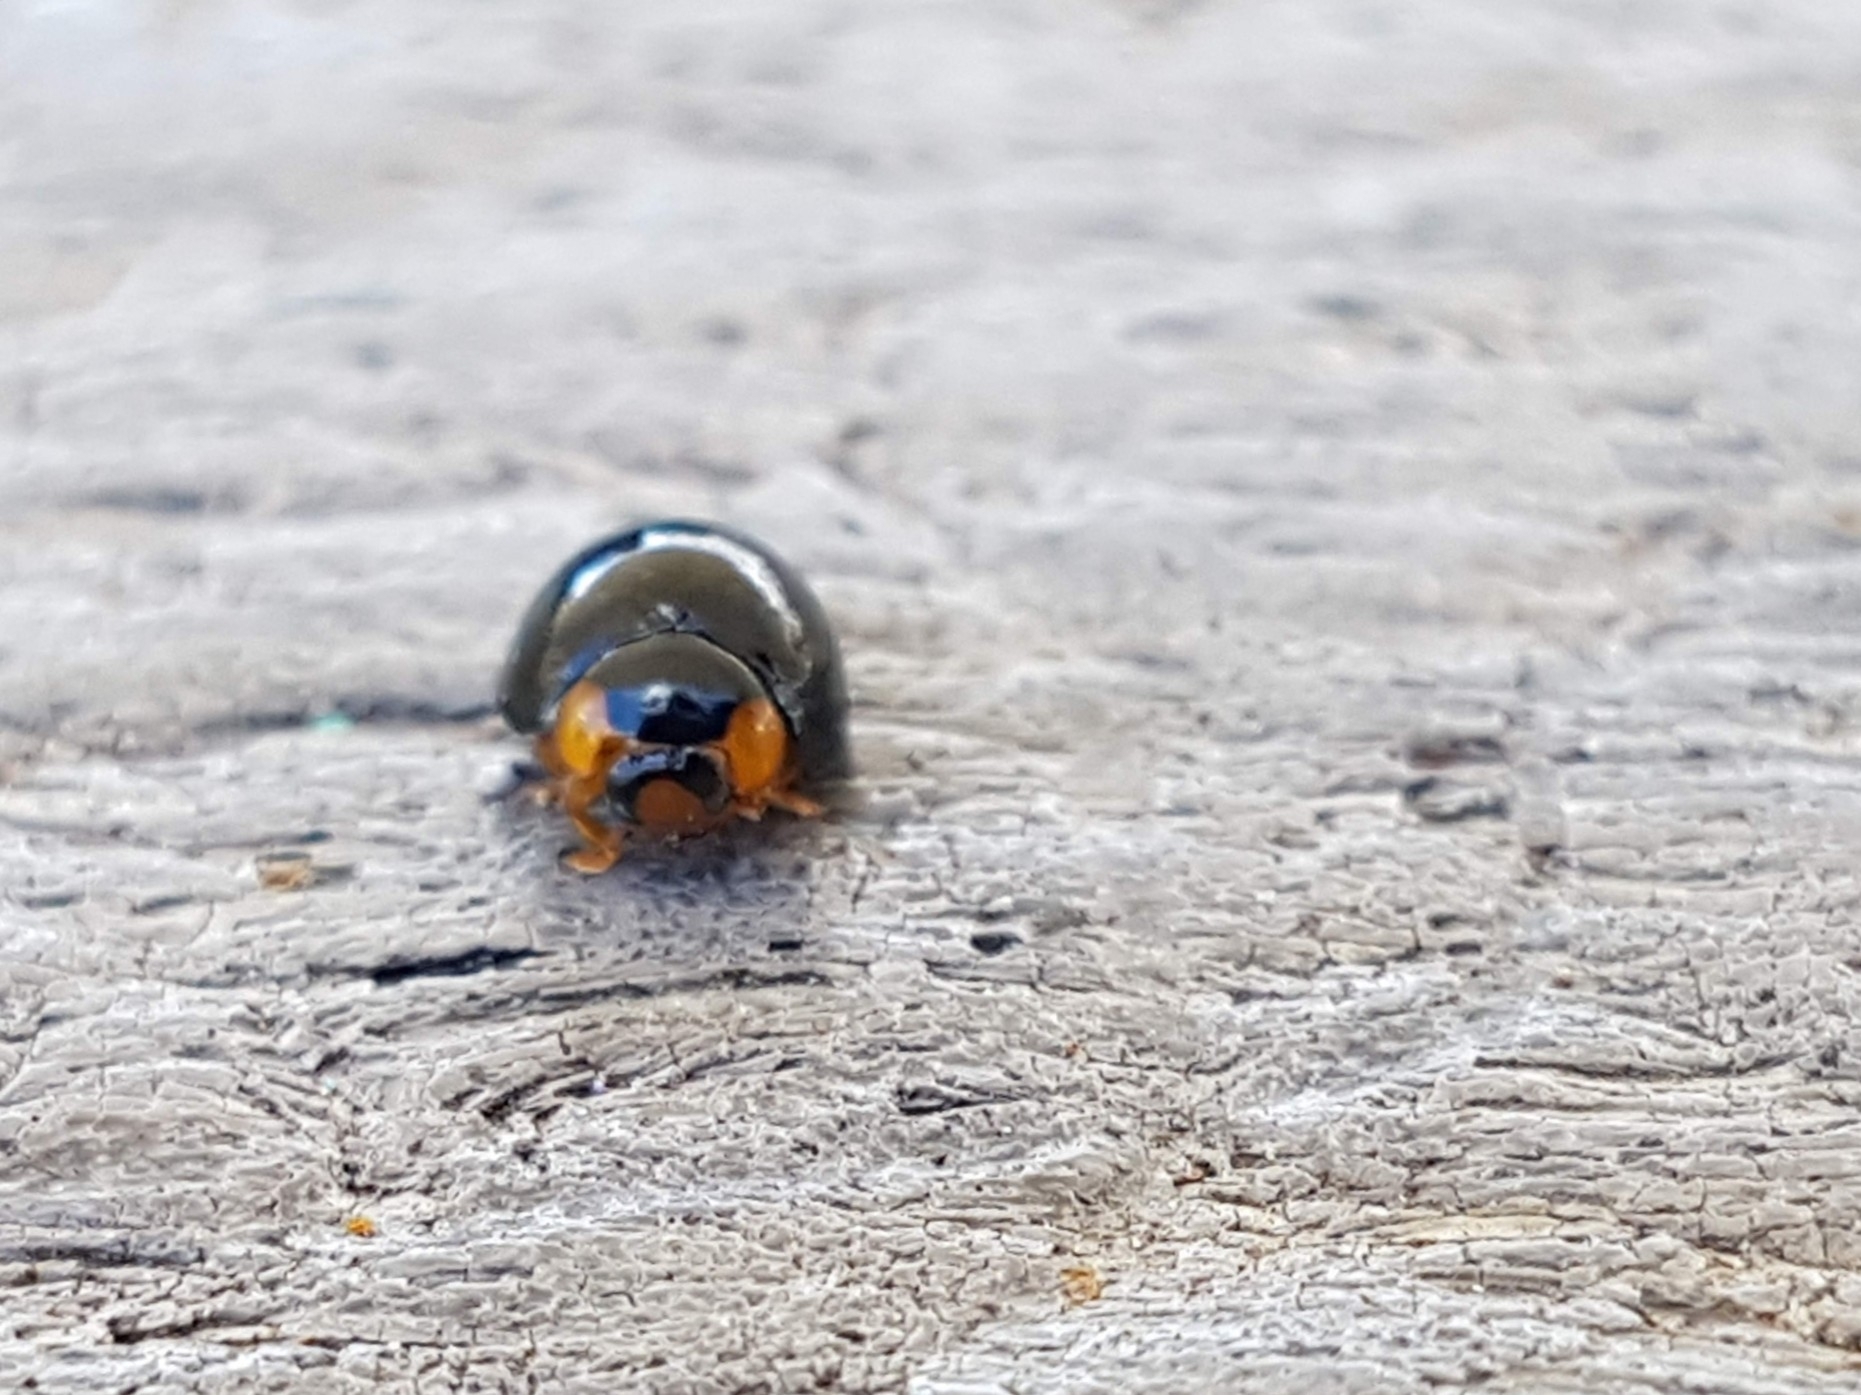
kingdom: Animalia
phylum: Arthropoda
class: Insecta
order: Coleoptera
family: Coccinellidae
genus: Curinus
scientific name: Curinus coeruleus
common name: Ladybird beetle
